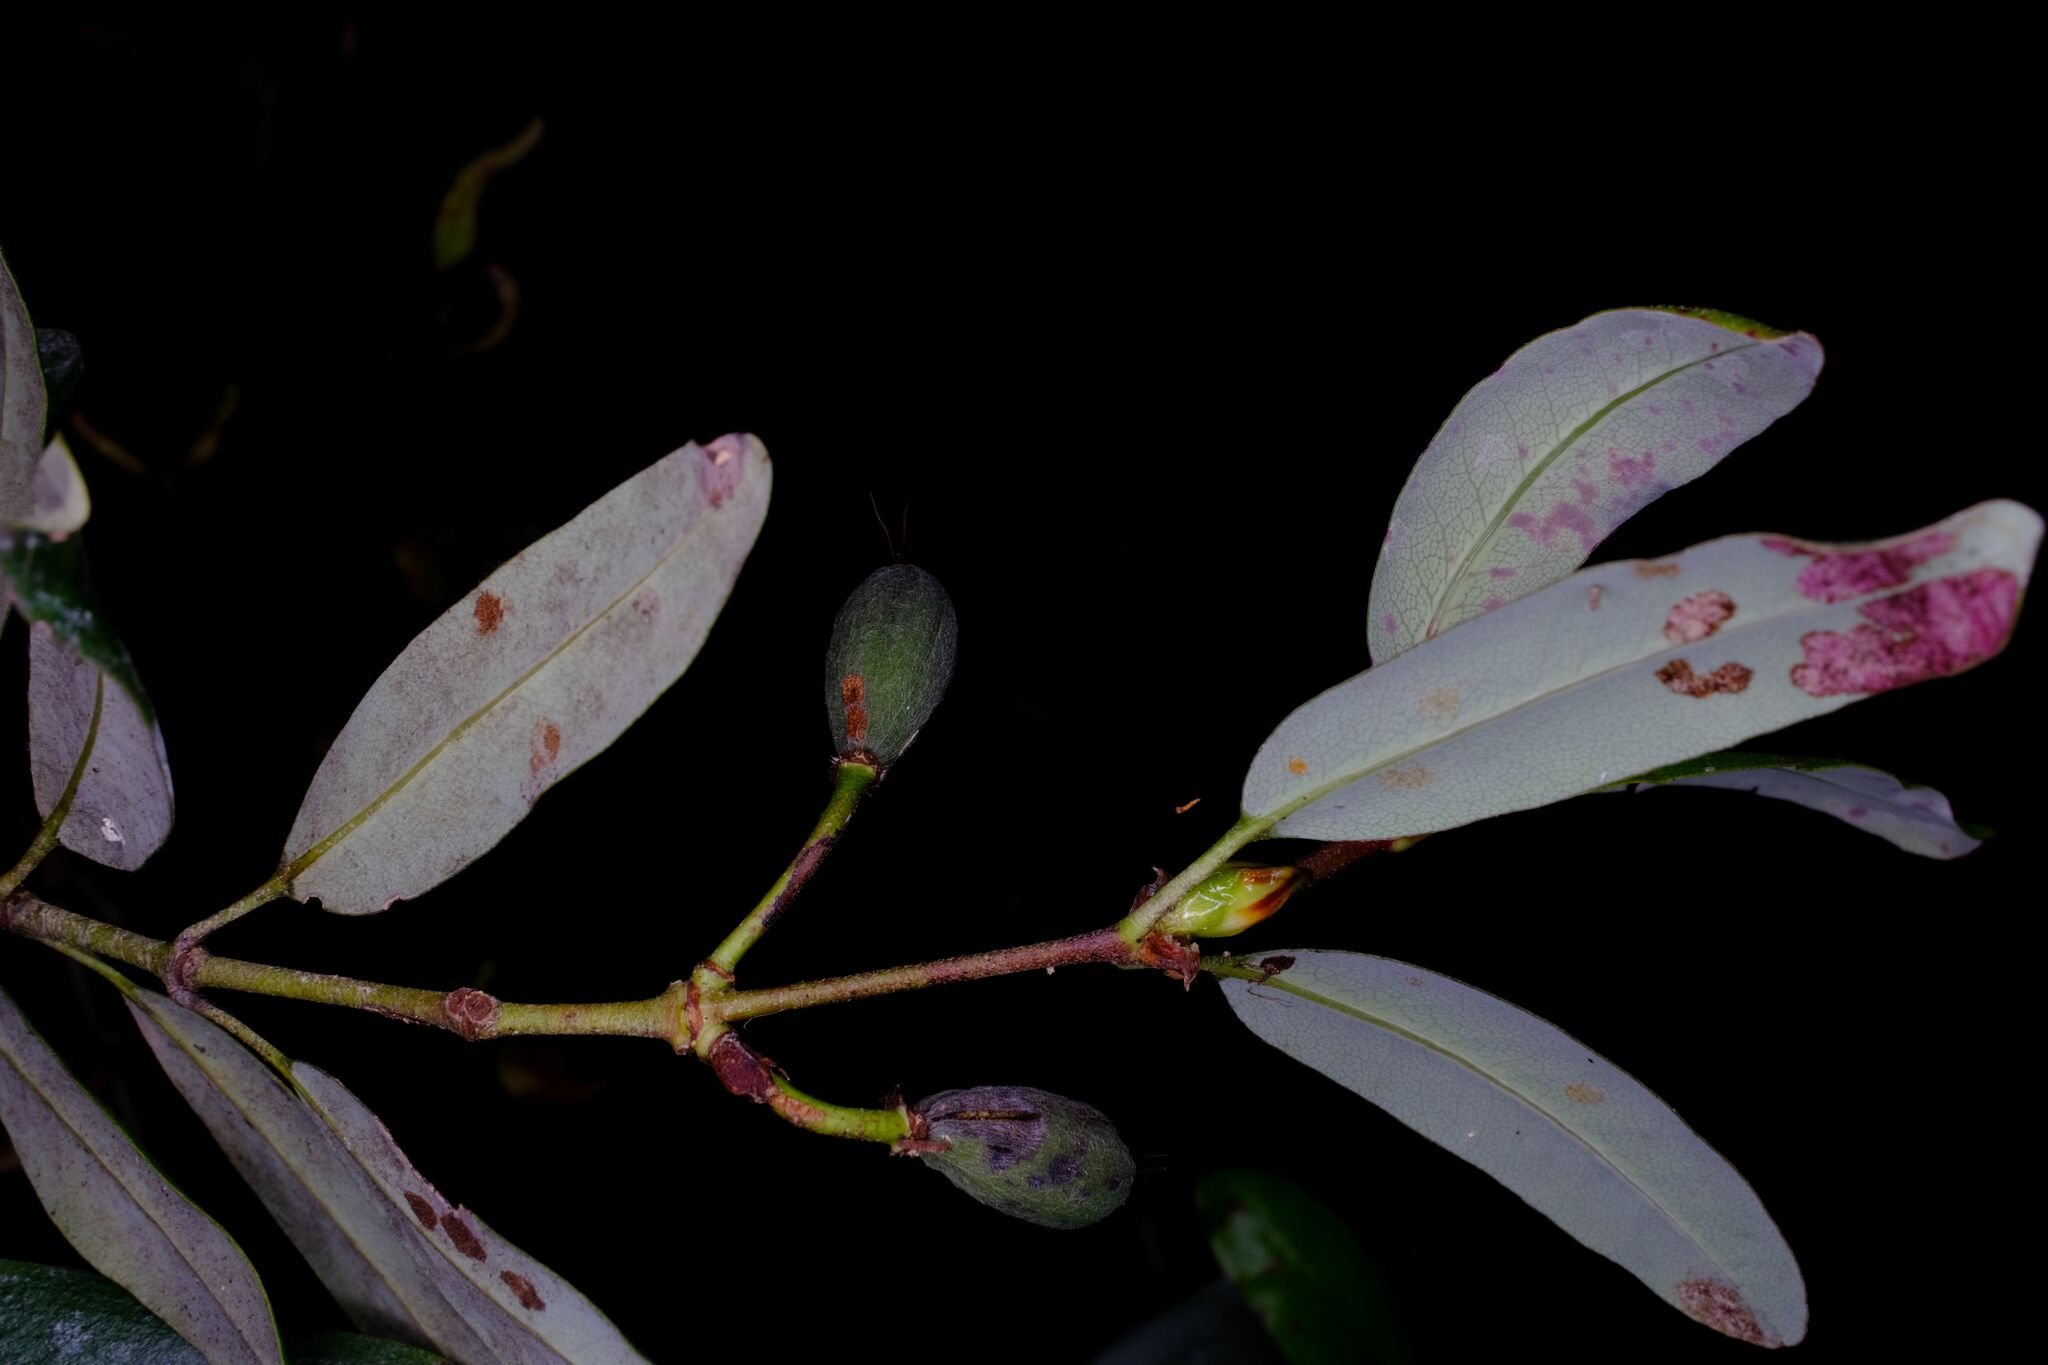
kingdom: Plantae
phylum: Tracheophyta
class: Magnoliopsida
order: Oxalidales
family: Cunoniaceae
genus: Eucryphia
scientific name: Eucryphia lucida
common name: Leatherwood
